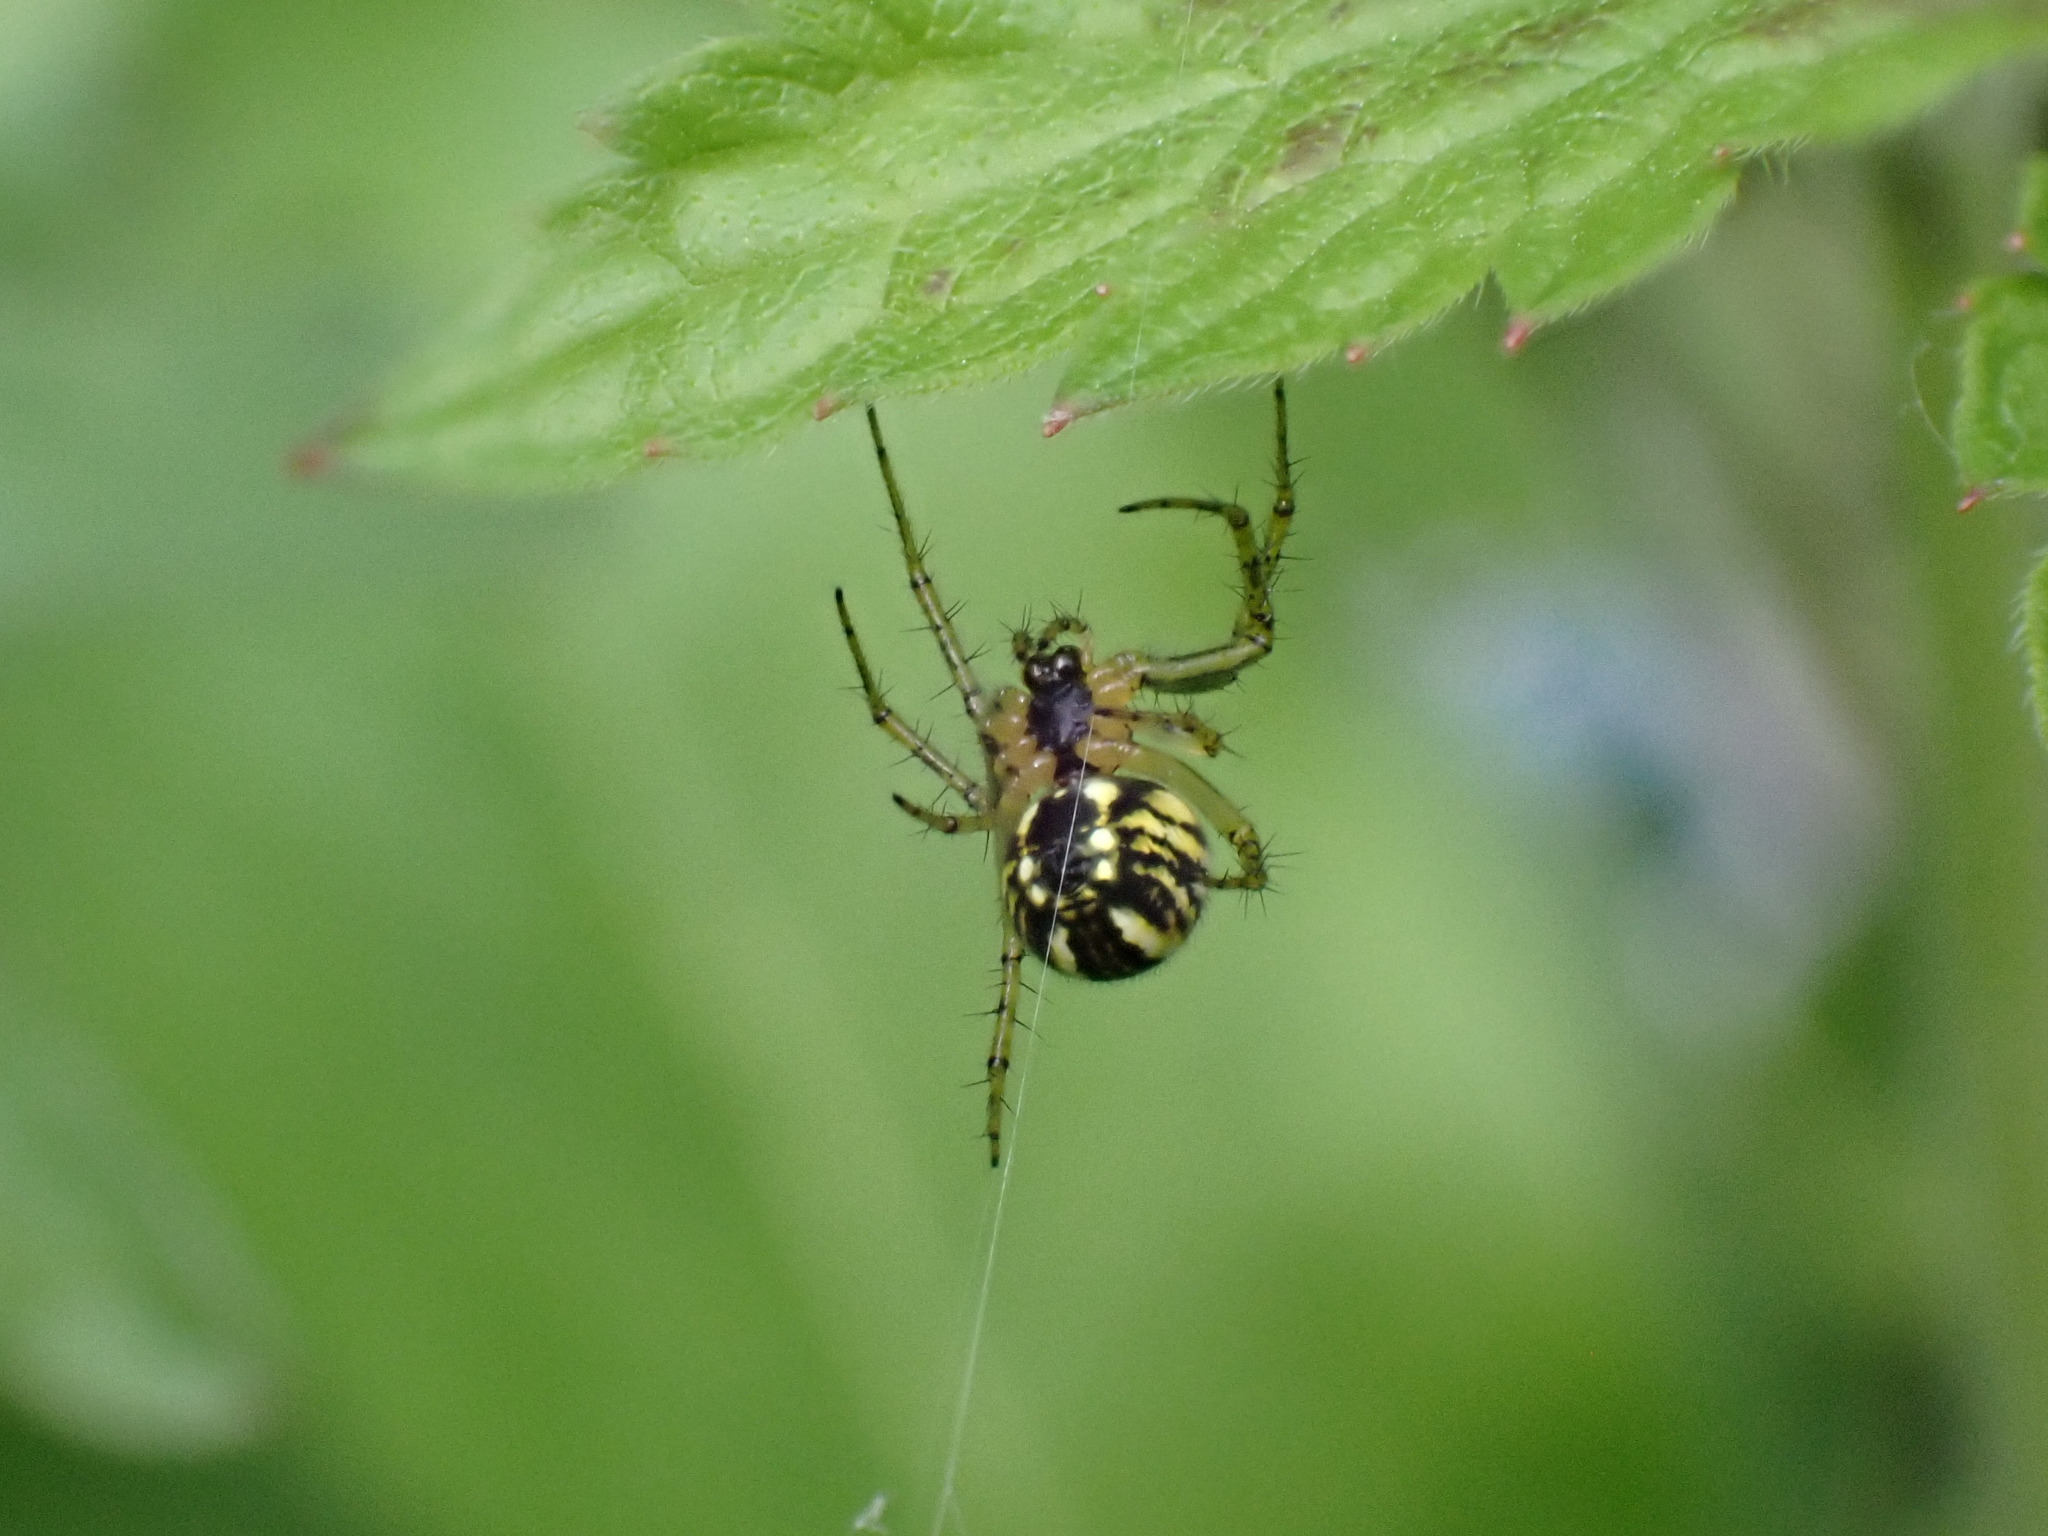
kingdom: Animalia
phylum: Arthropoda
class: Arachnida
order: Araneae
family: Araneidae
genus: Mangora
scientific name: Mangora acalypha
